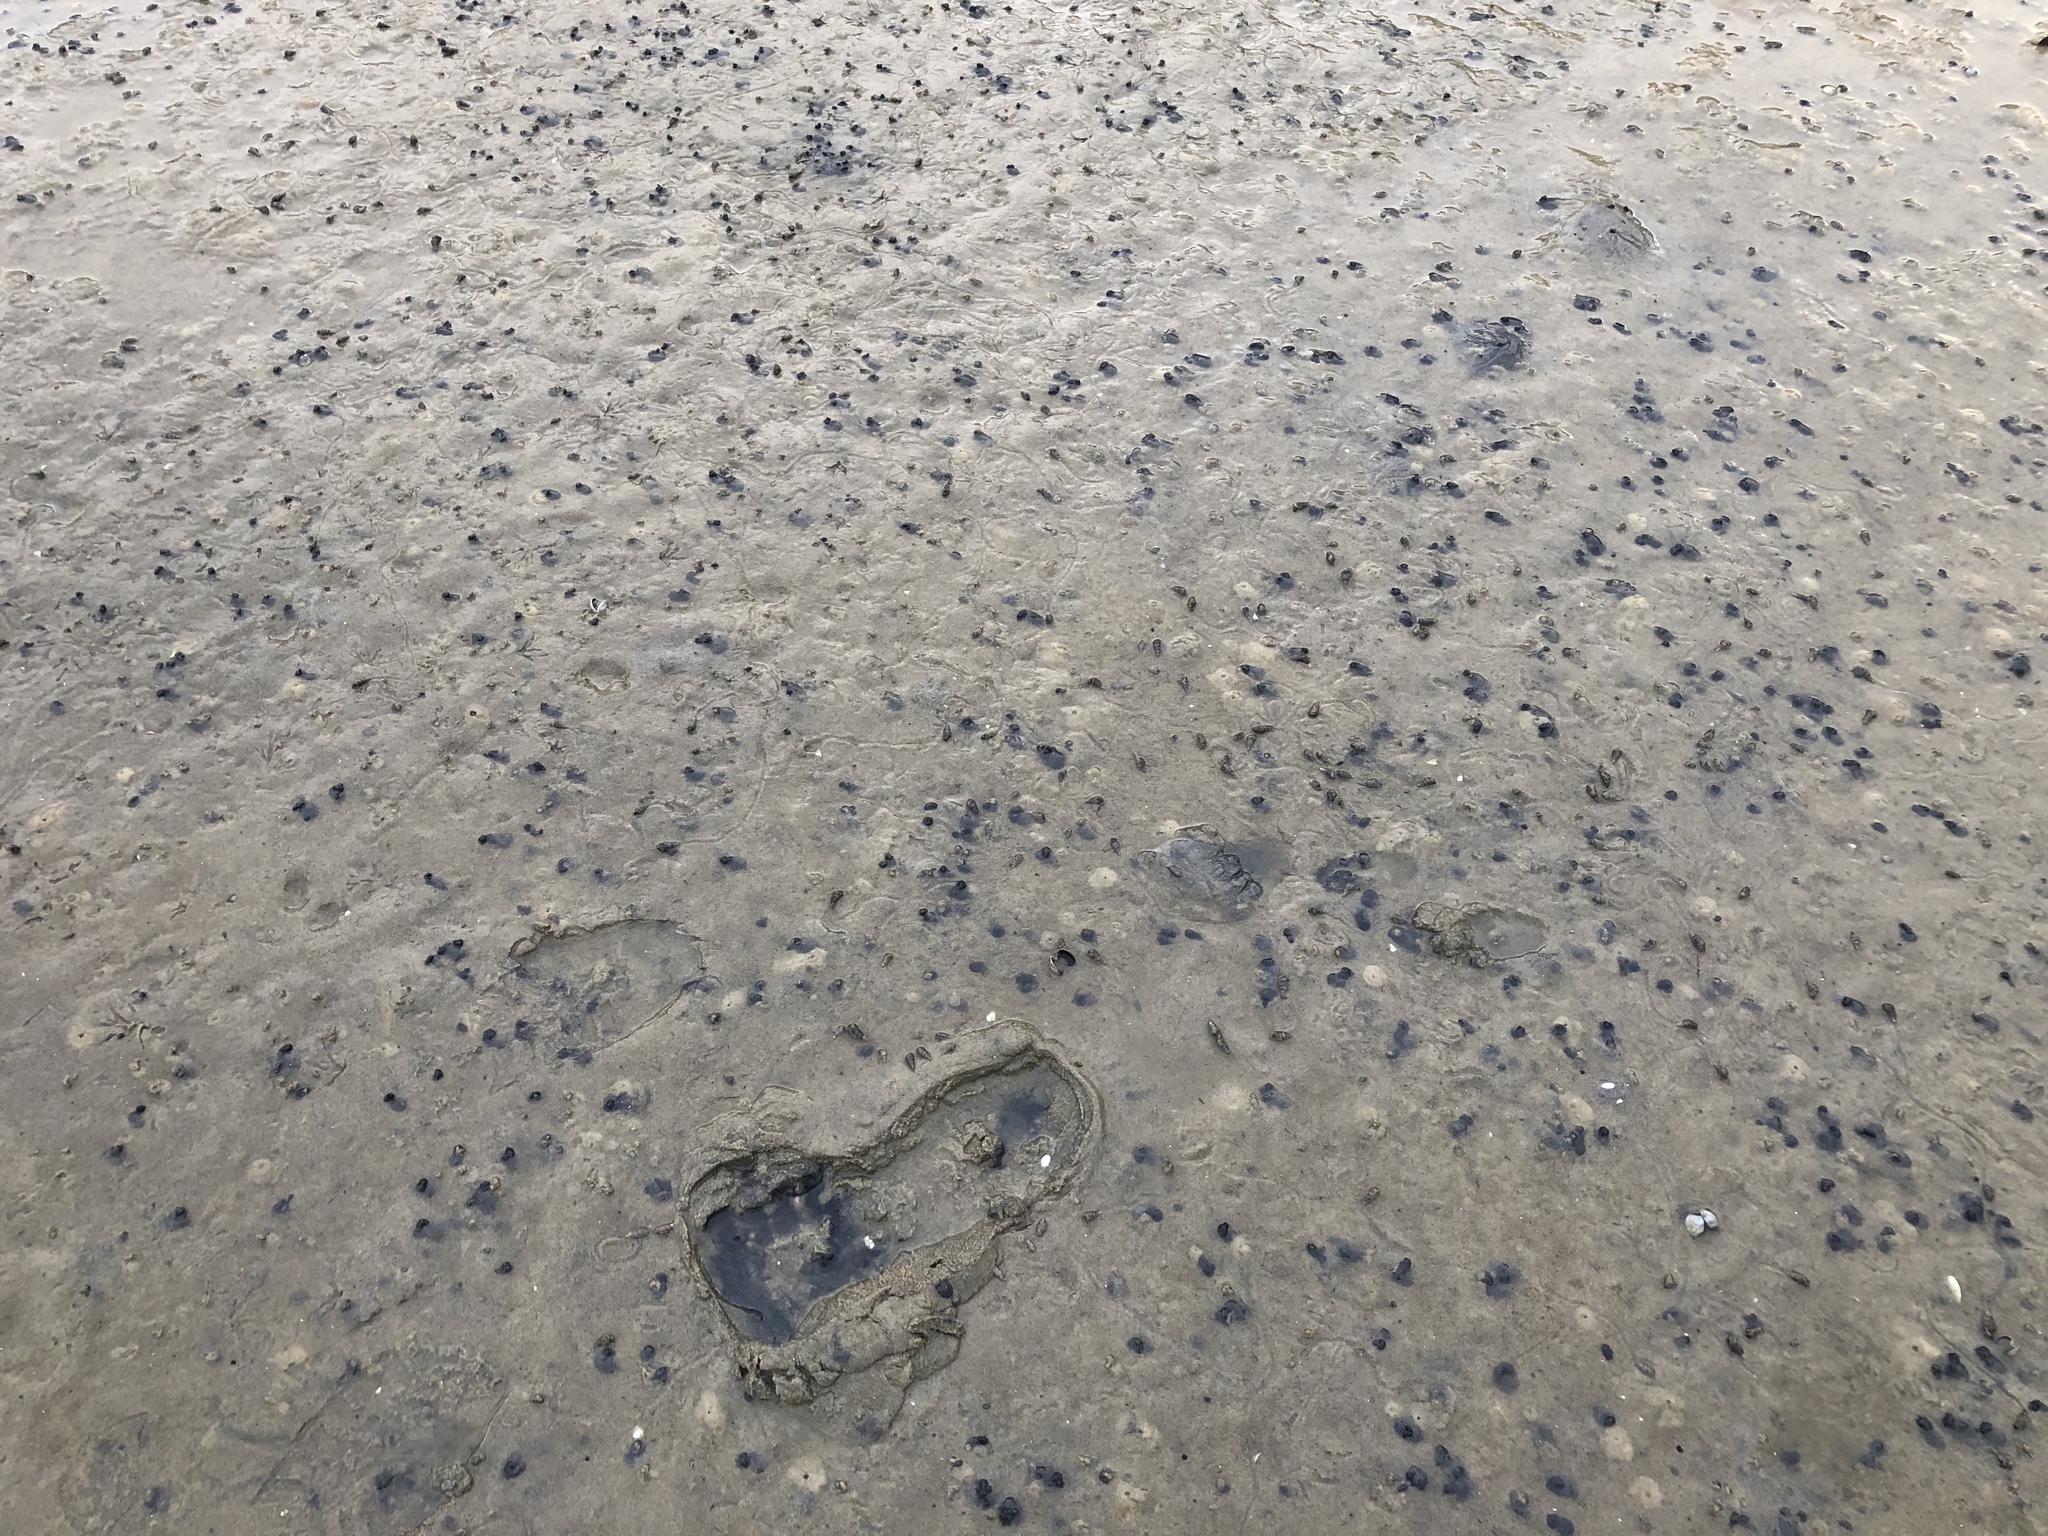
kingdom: Animalia
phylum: Mollusca
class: Bivalvia
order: Venerida
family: Veneridae
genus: Austrovenus
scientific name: Austrovenus stutchburyi
